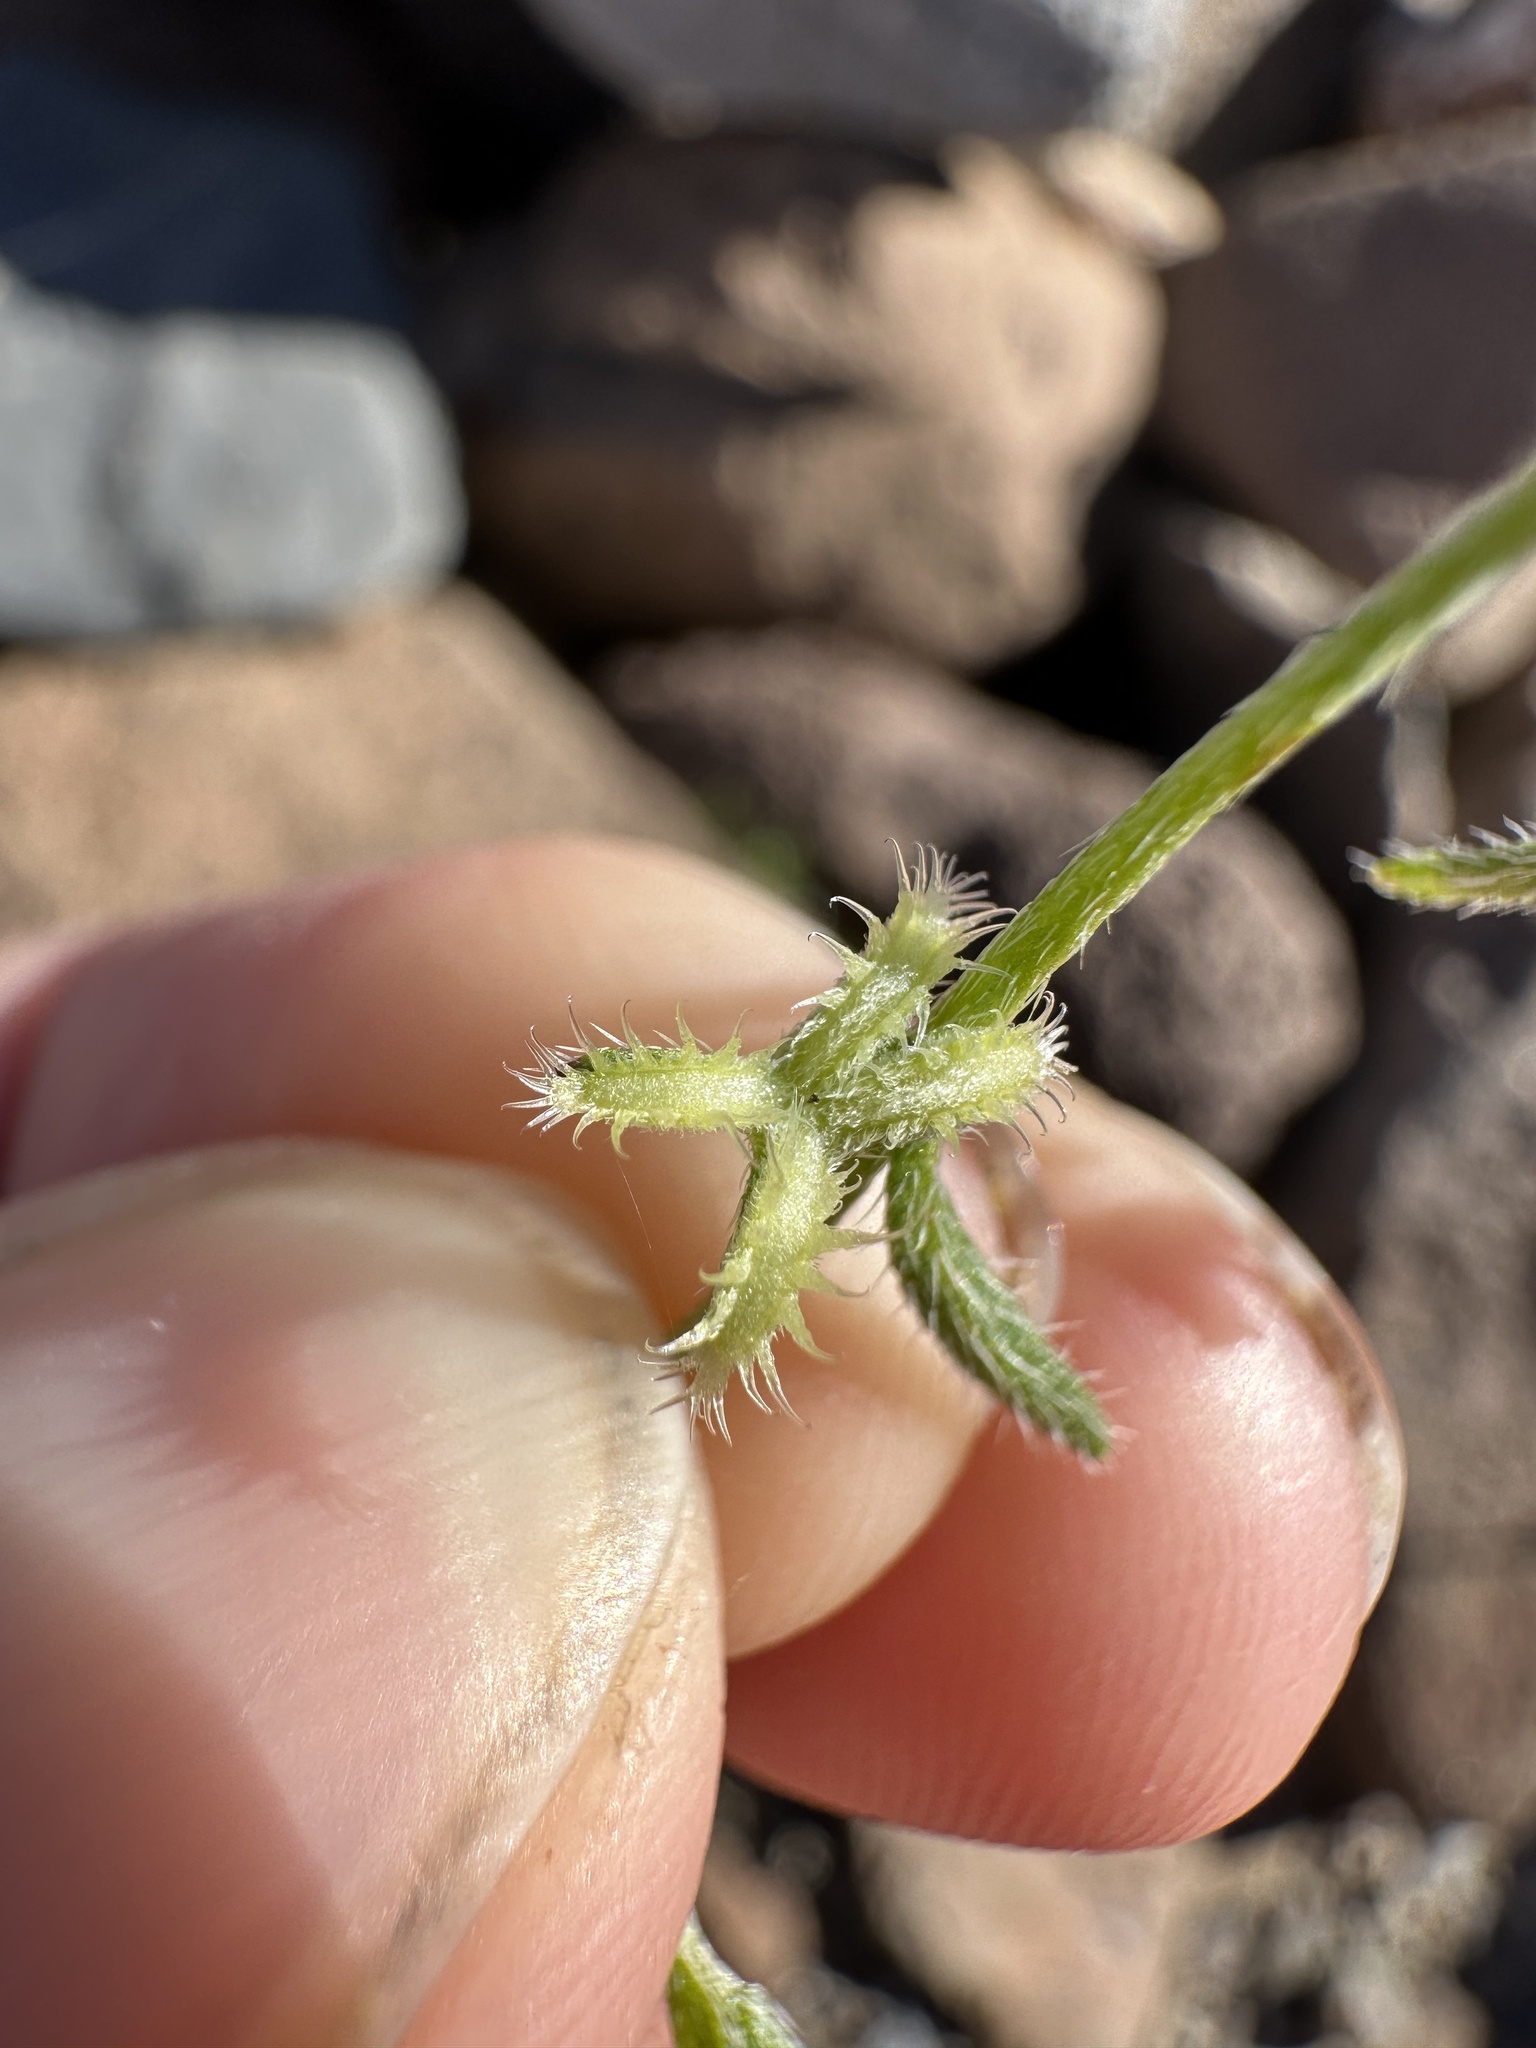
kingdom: Plantae
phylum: Tracheophyta
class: Magnoliopsida
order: Boraginales
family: Boraginaceae
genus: Pectocarya
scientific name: Pectocarya recurvata
